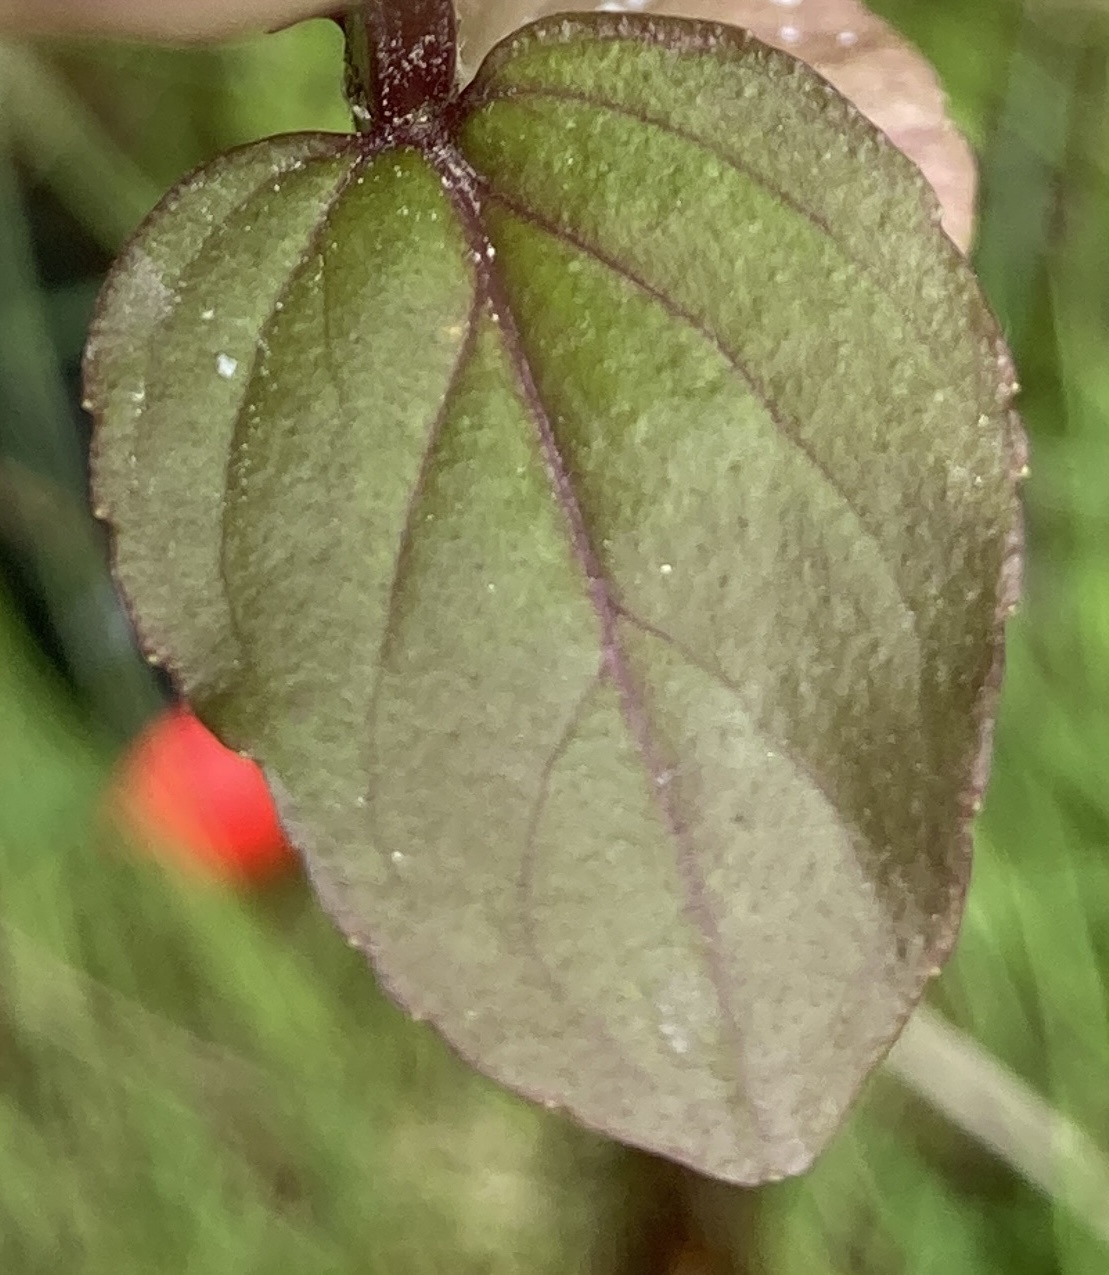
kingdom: Plantae
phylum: Tracheophyta
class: Magnoliopsida
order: Lamiales
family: Lamiaceae
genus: Mentha
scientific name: Mentha arvensis
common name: Corn mint
